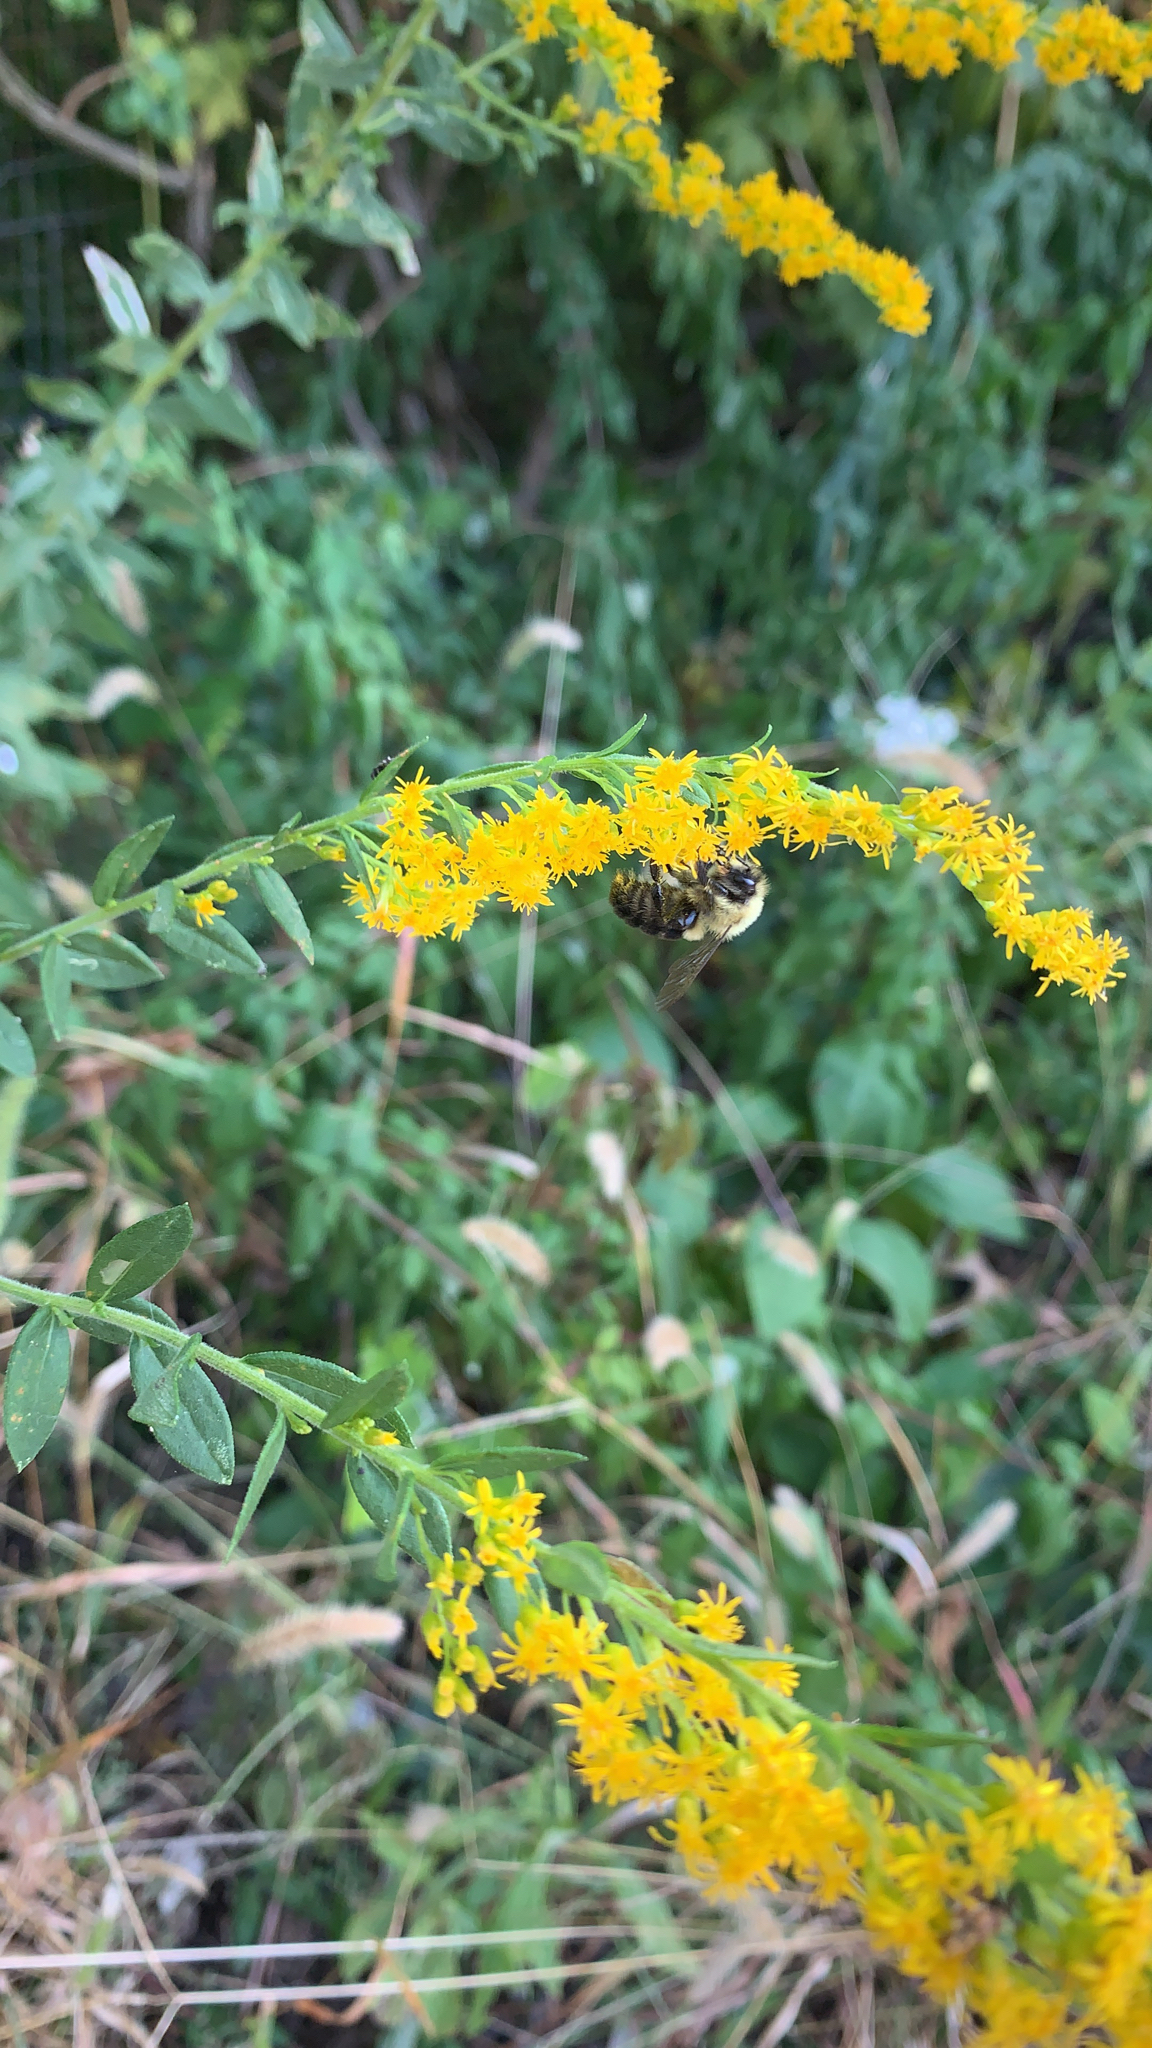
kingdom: Animalia
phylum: Arthropoda
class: Insecta
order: Hymenoptera
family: Apidae
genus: Bombus
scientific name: Bombus impatiens
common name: Common eastern bumble bee
